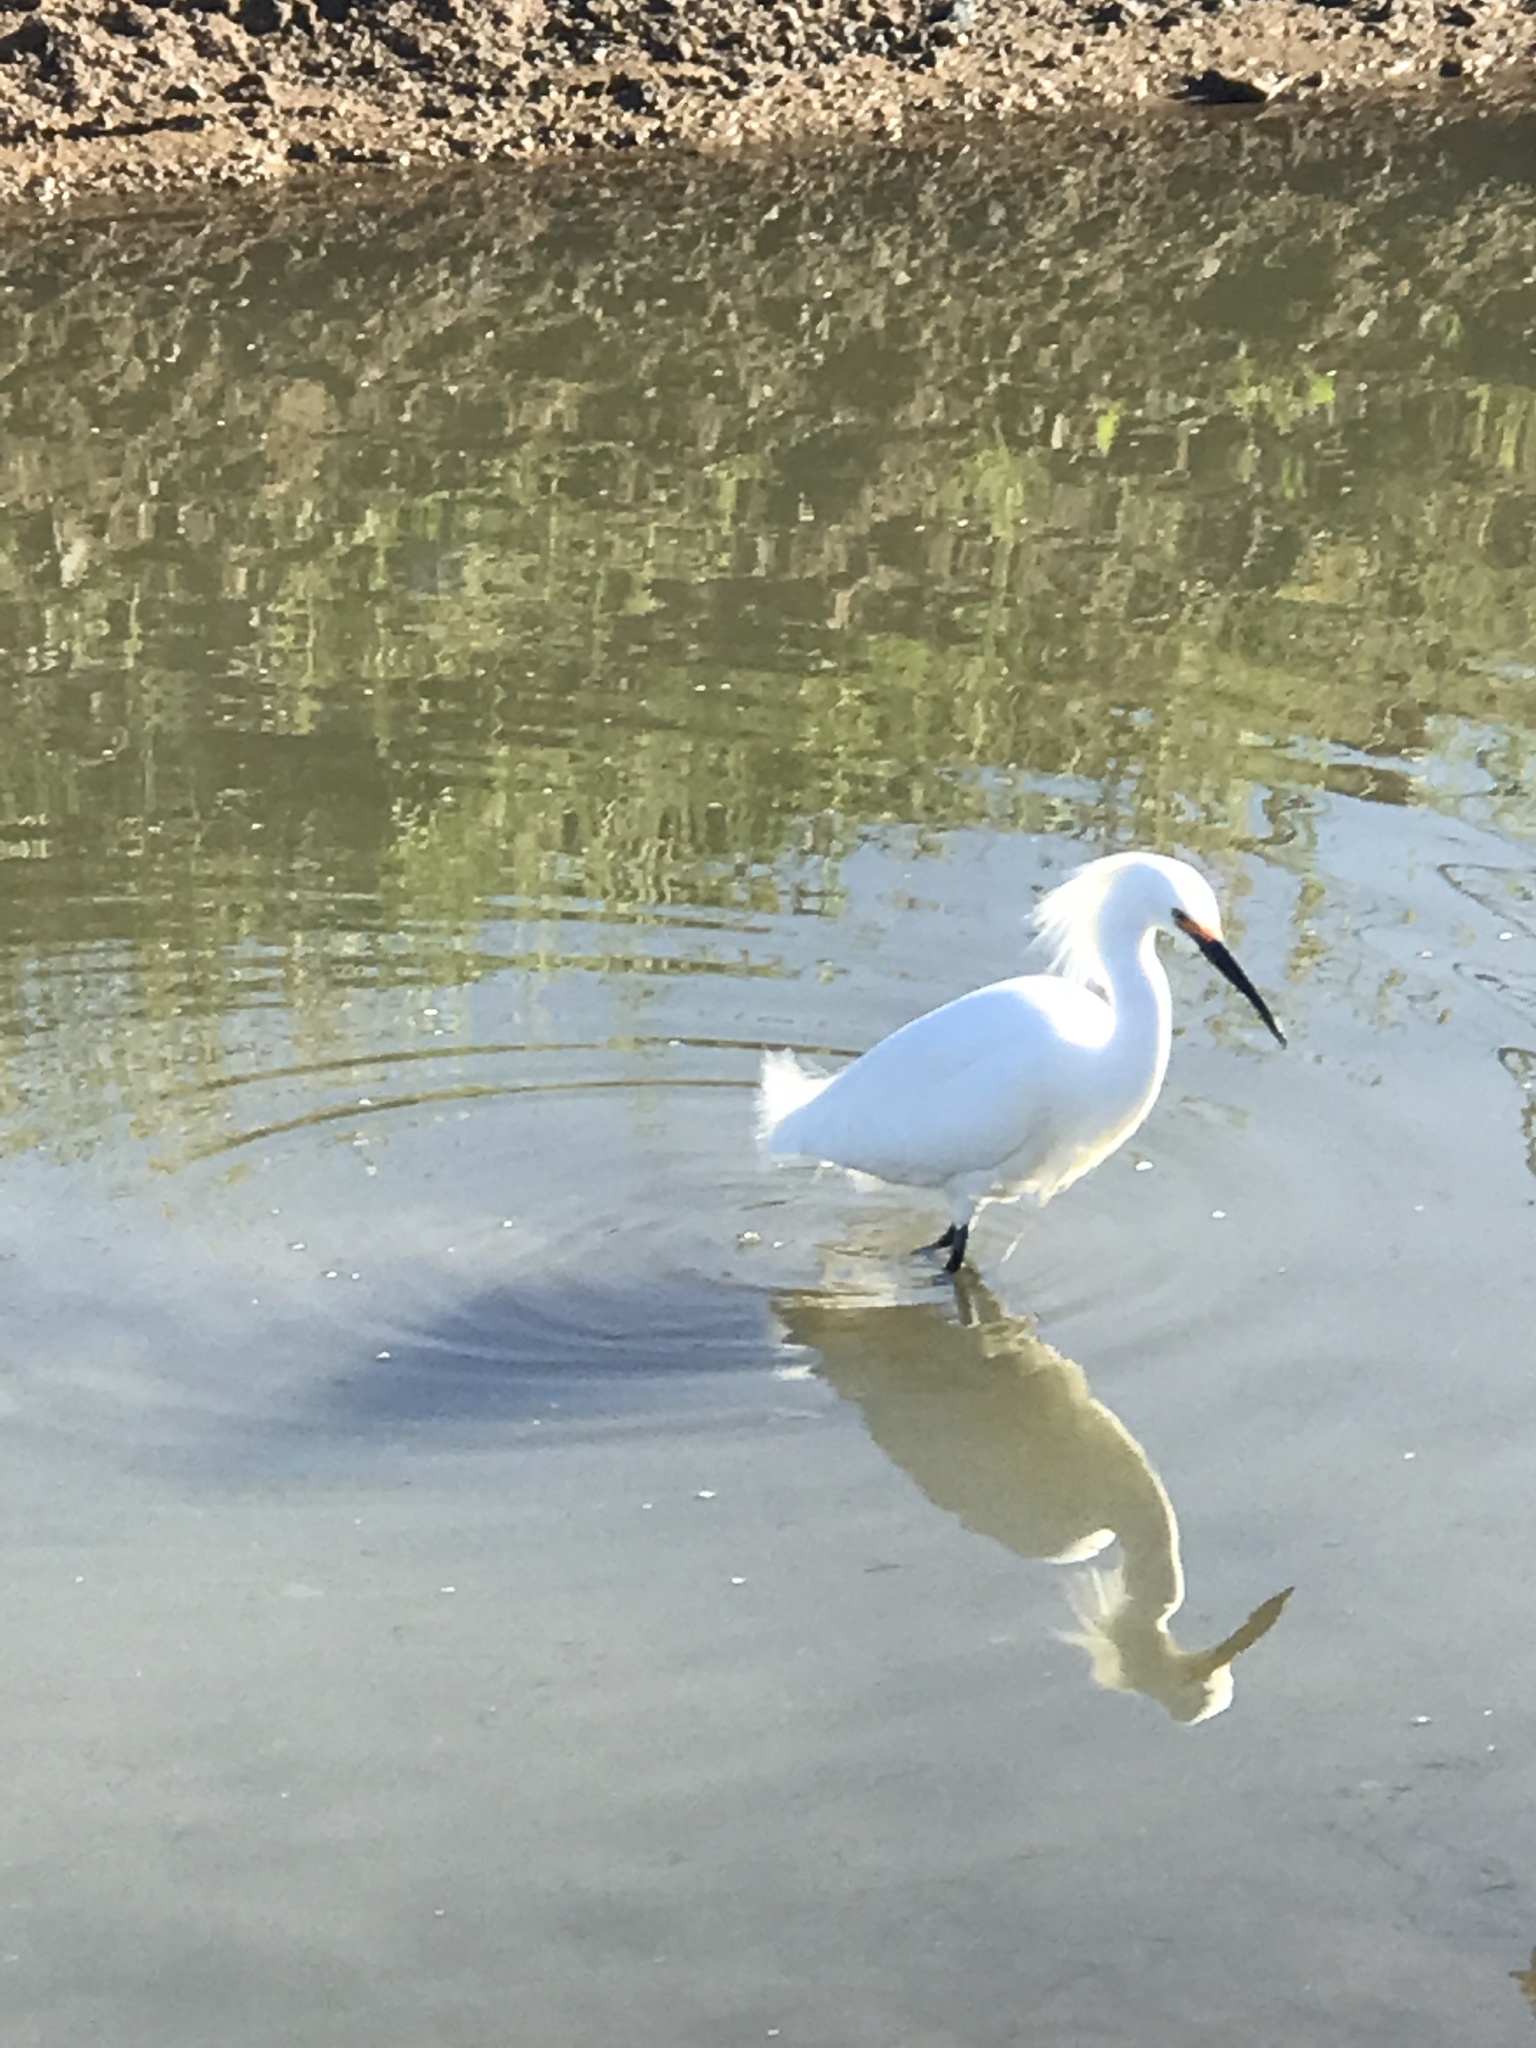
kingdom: Animalia
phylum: Chordata
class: Aves
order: Pelecaniformes
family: Ardeidae
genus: Egretta
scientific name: Egretta thula
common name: Snowy egret
